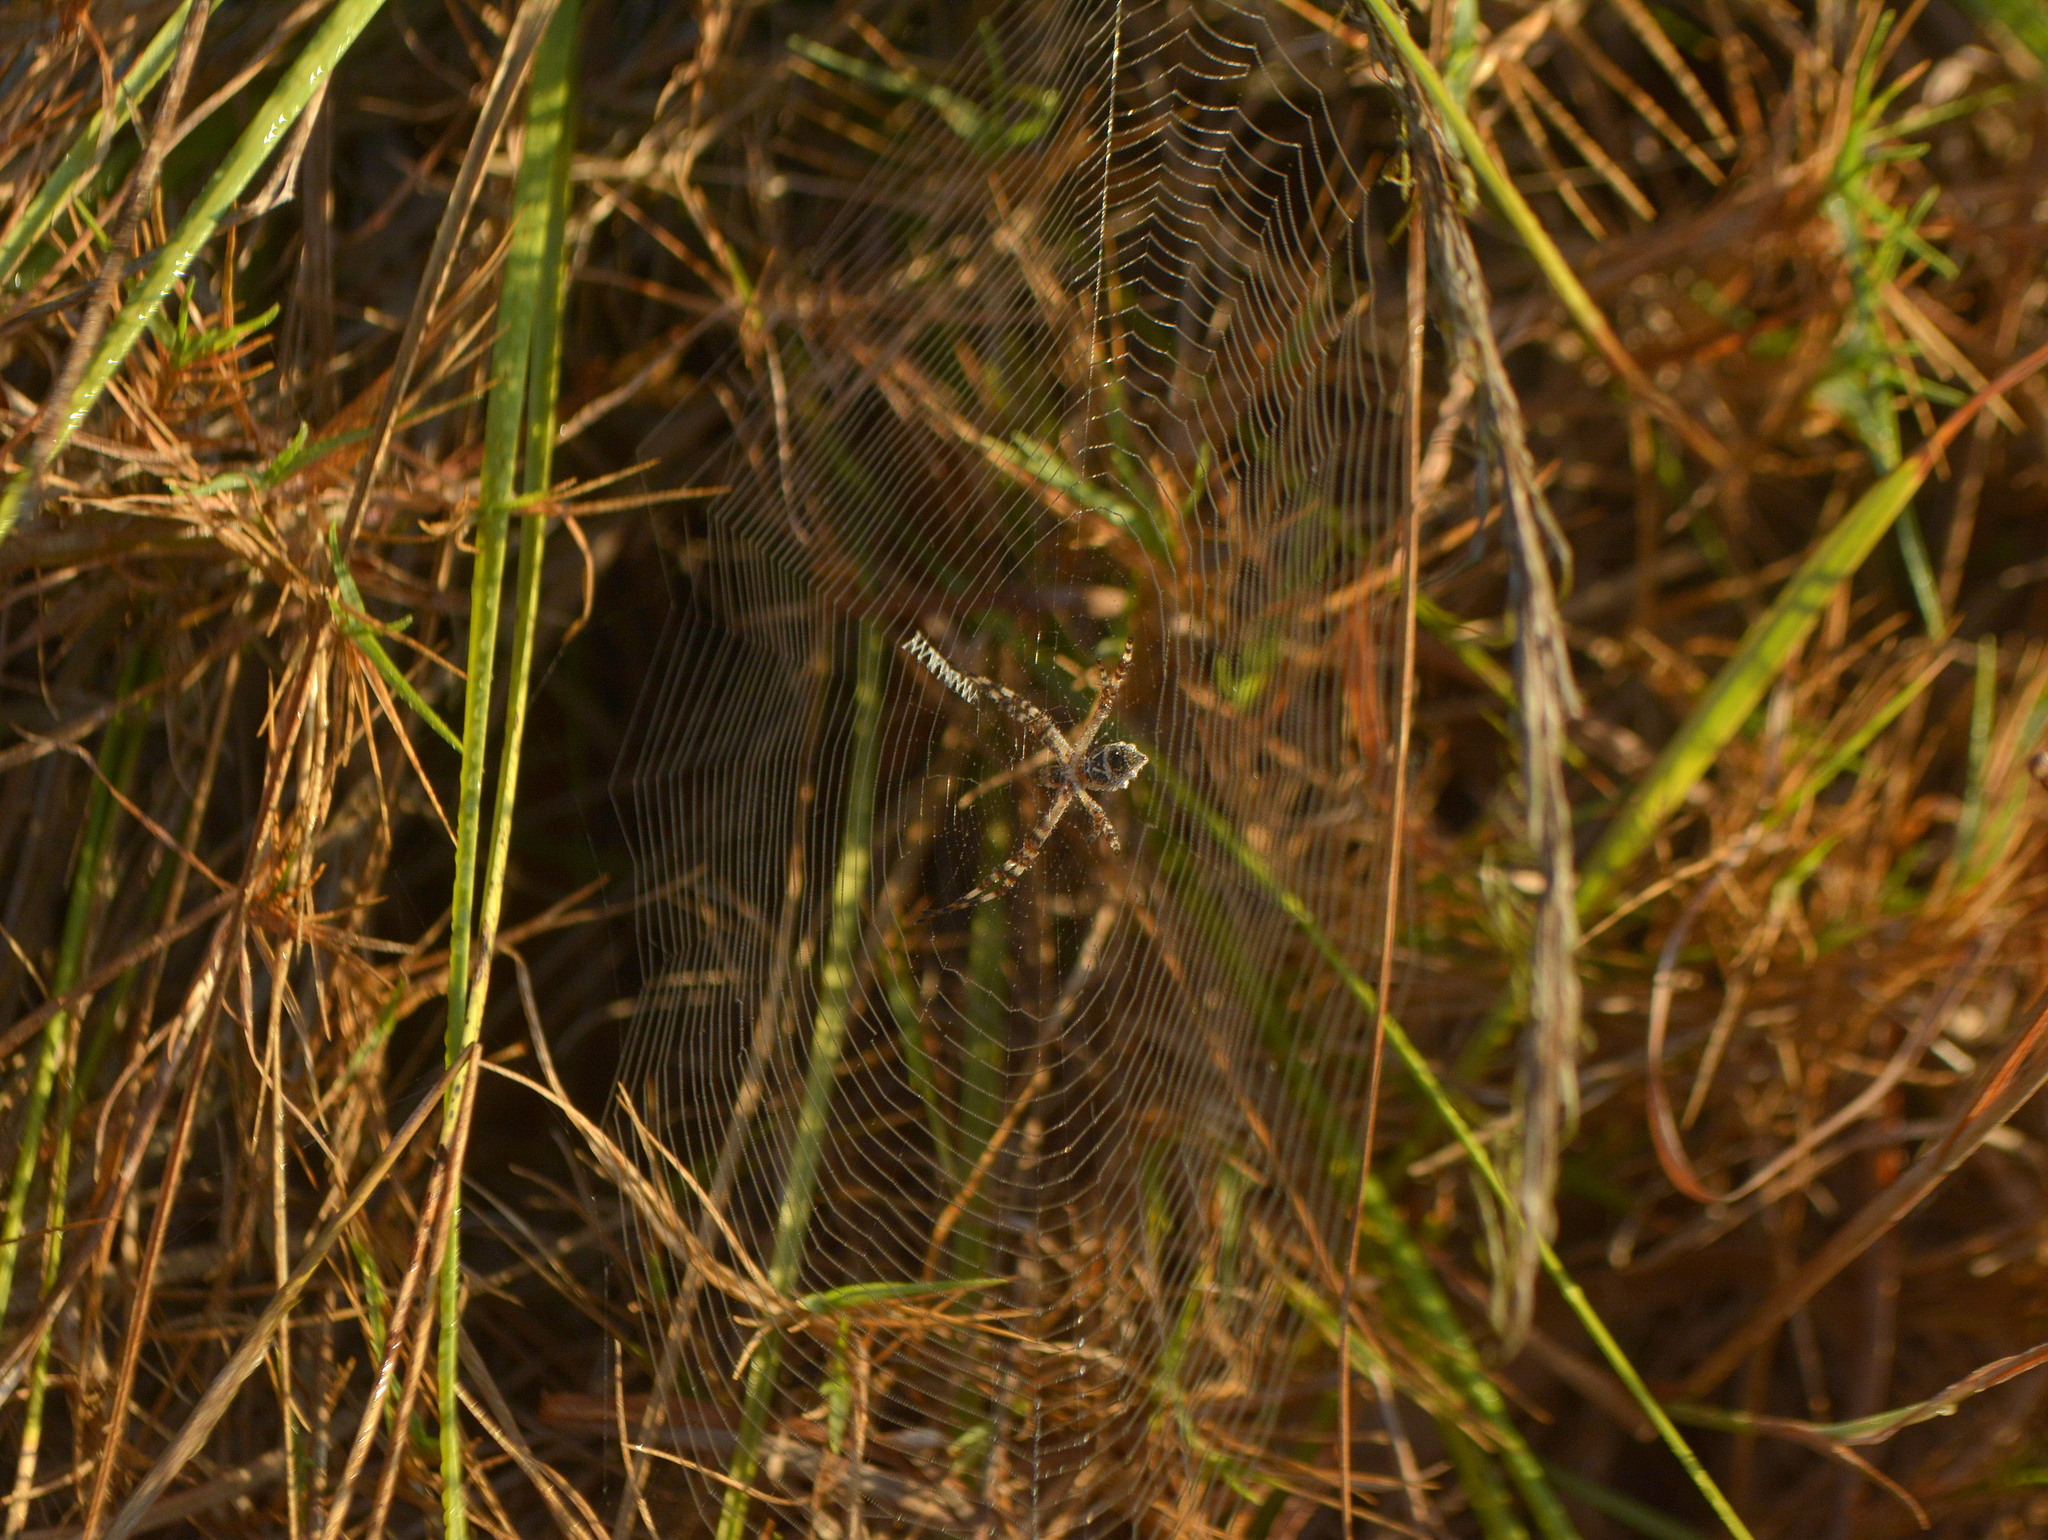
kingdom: Animalia
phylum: Arthropoda
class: Arachnida
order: Araneae
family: Araneidae
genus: Argiope
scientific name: Argiope argentata
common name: Orb weavers
